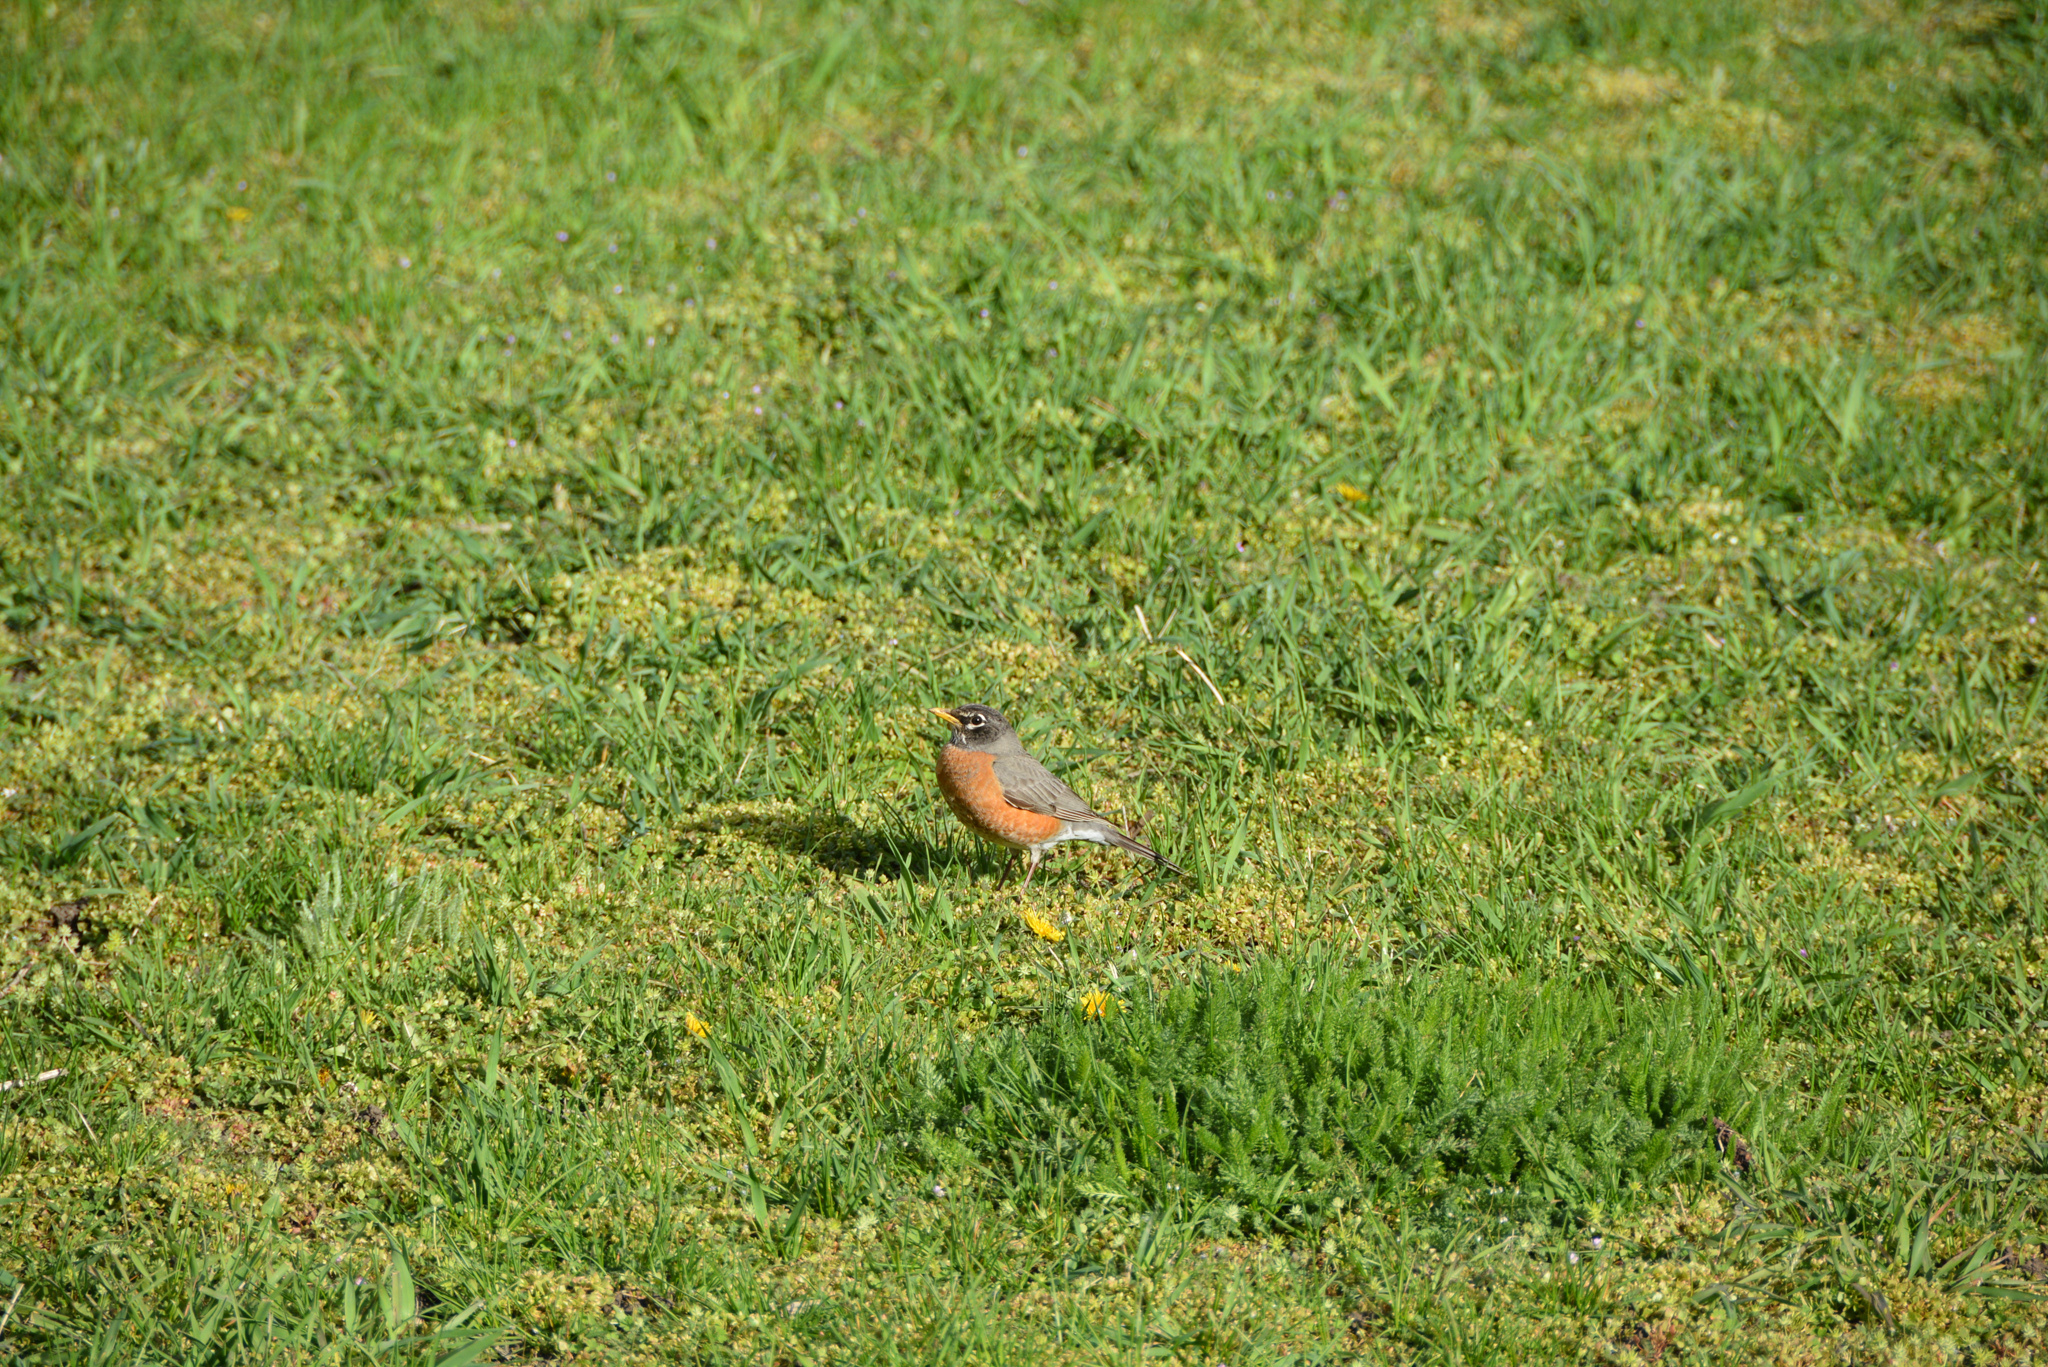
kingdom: Animalia
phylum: Chordata
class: Aves
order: Passeriformes
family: Turdidae
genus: Turdus
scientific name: Turdus migratorius
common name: American robin
